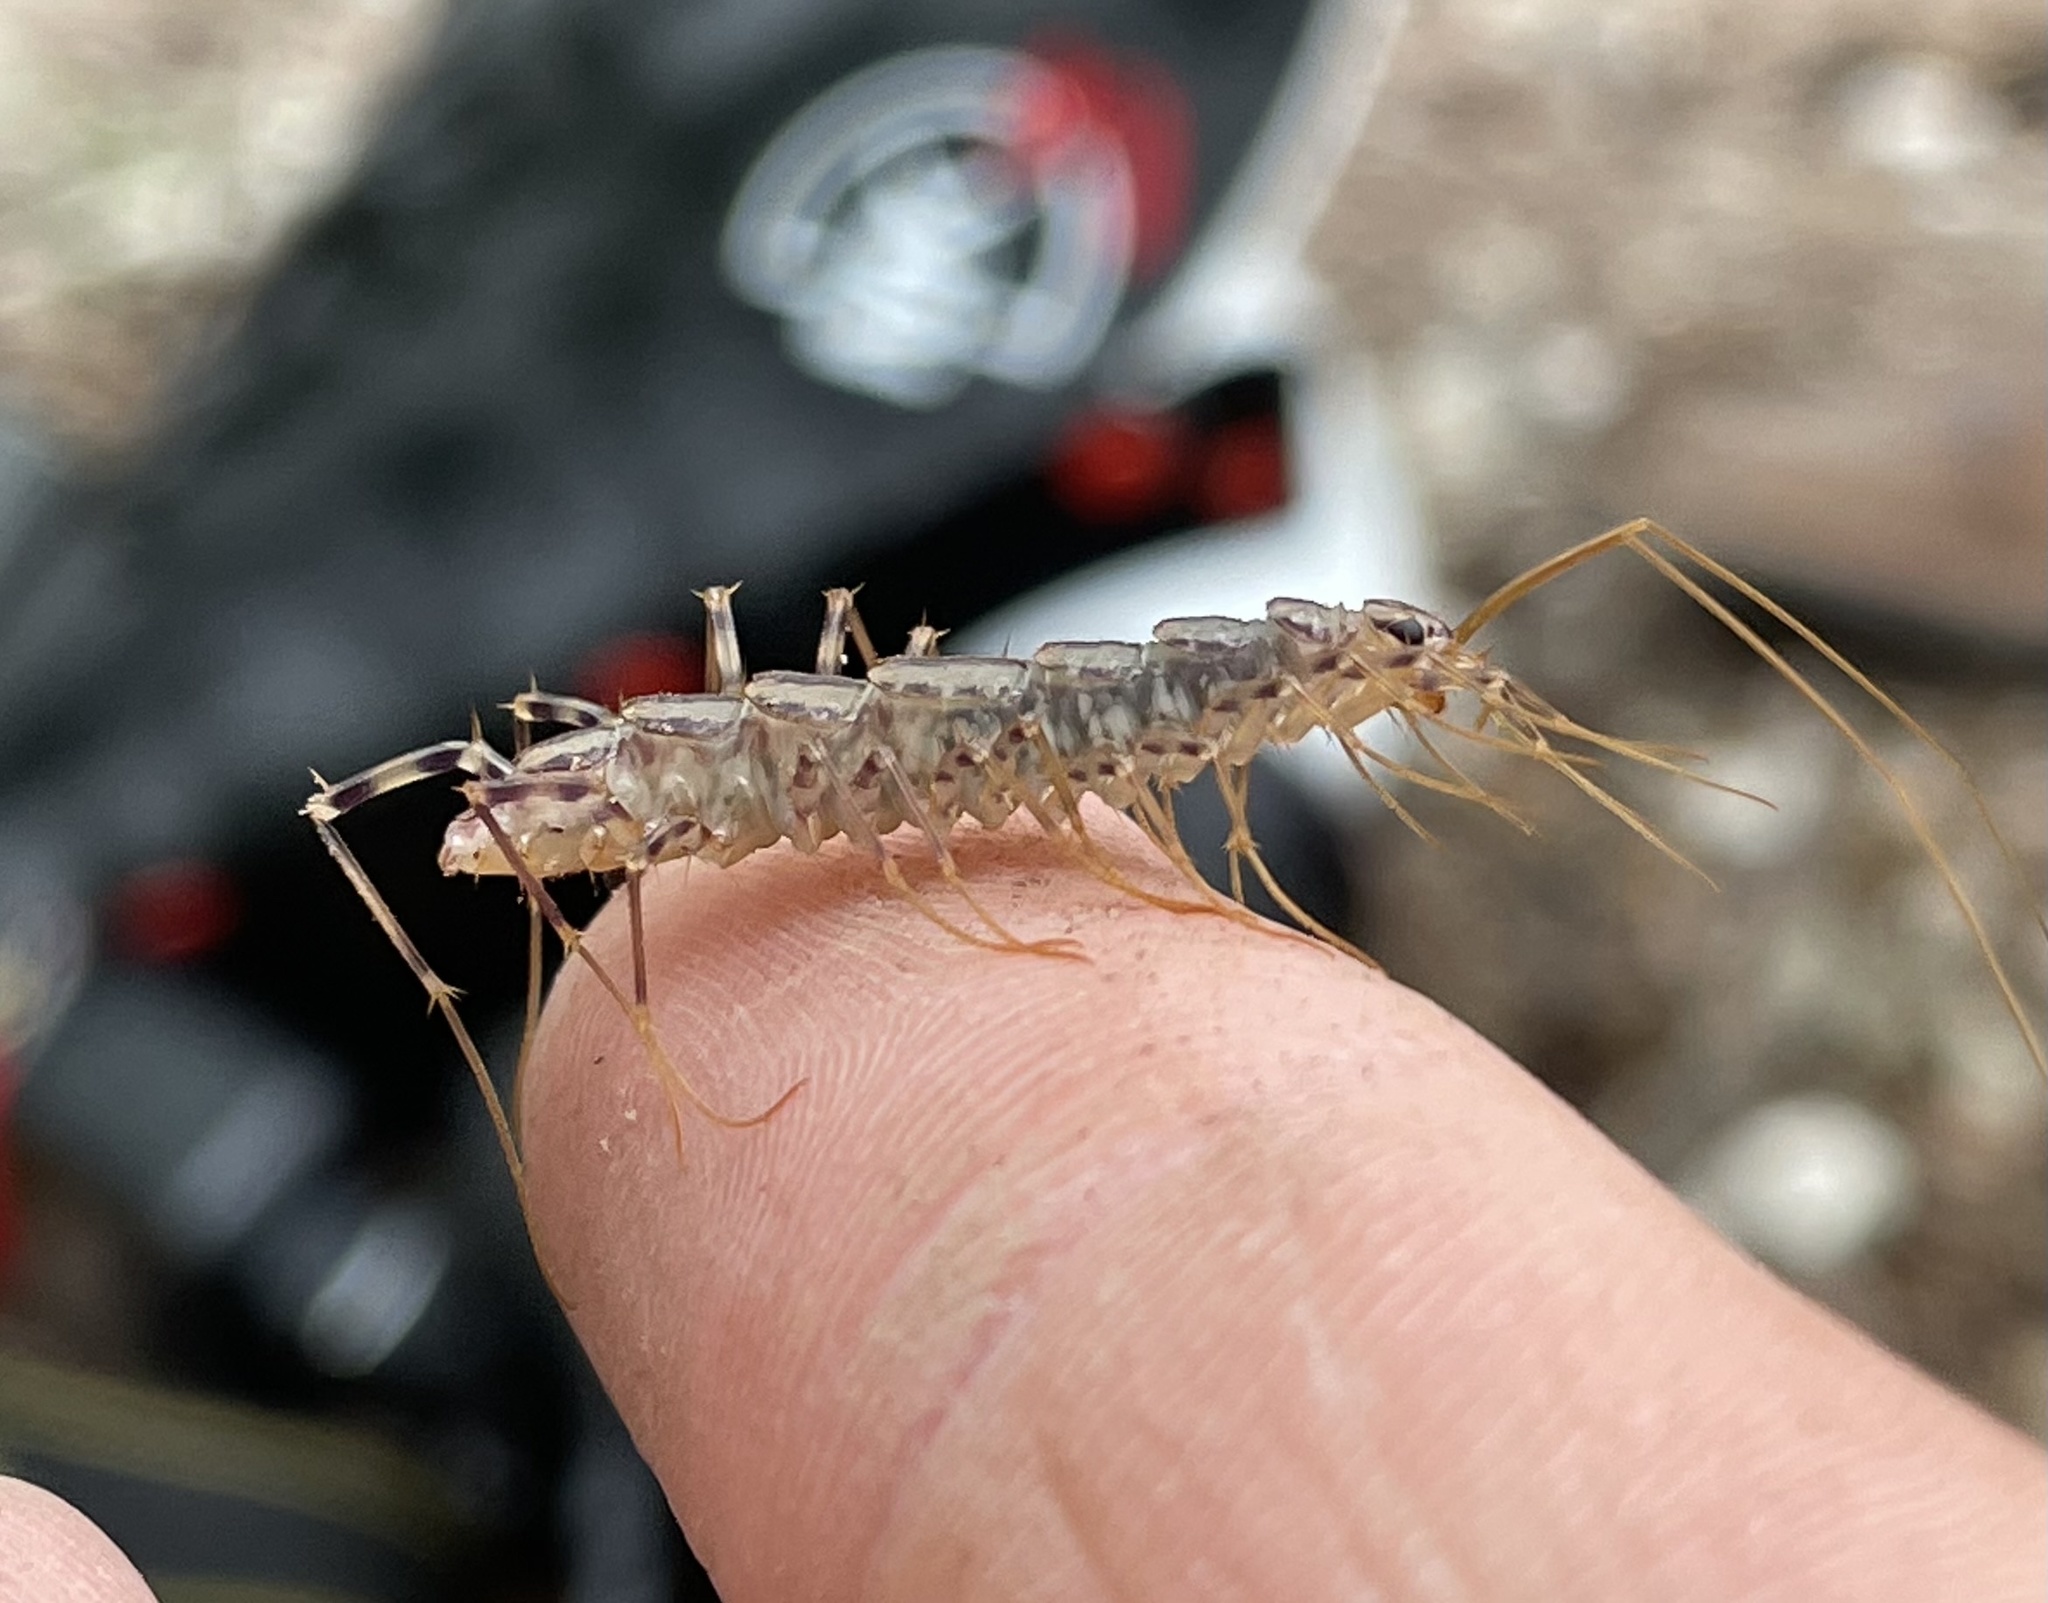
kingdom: Animalia
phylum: Arthropoda
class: Chilopoda
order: Scutigeromorpha
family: Scutigeridae
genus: Scutigera
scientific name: Scutigera coleoptrata
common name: House centipede
